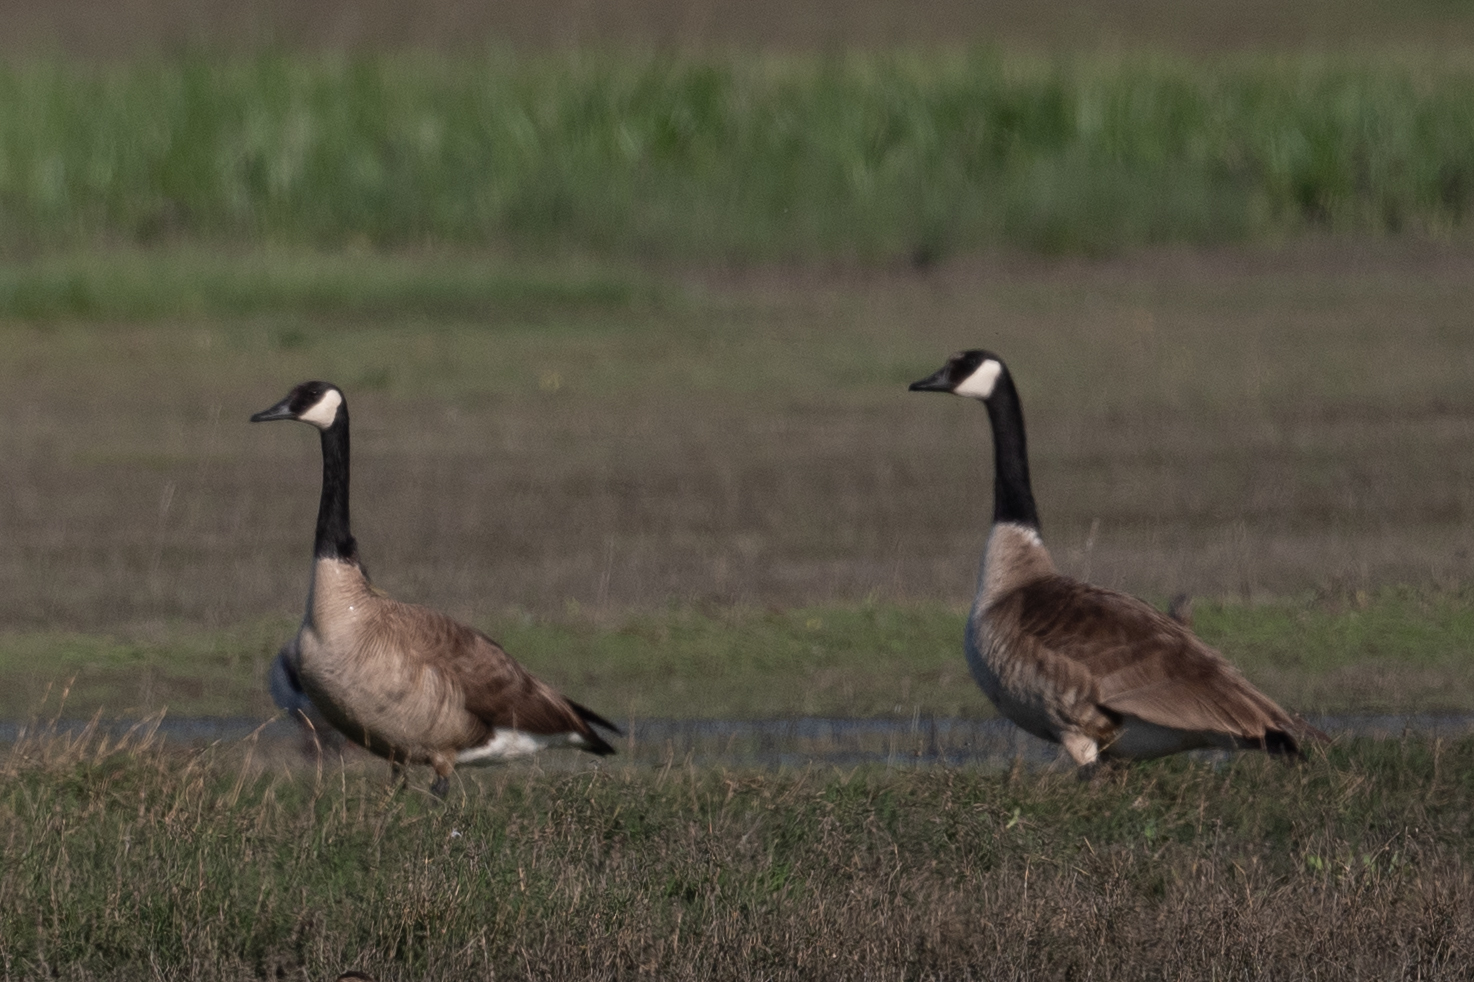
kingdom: Animalia
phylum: Chordata
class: Aves
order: Anseriformes
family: Anatidae
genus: Branta
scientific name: Branta canadensis
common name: Canada goose
